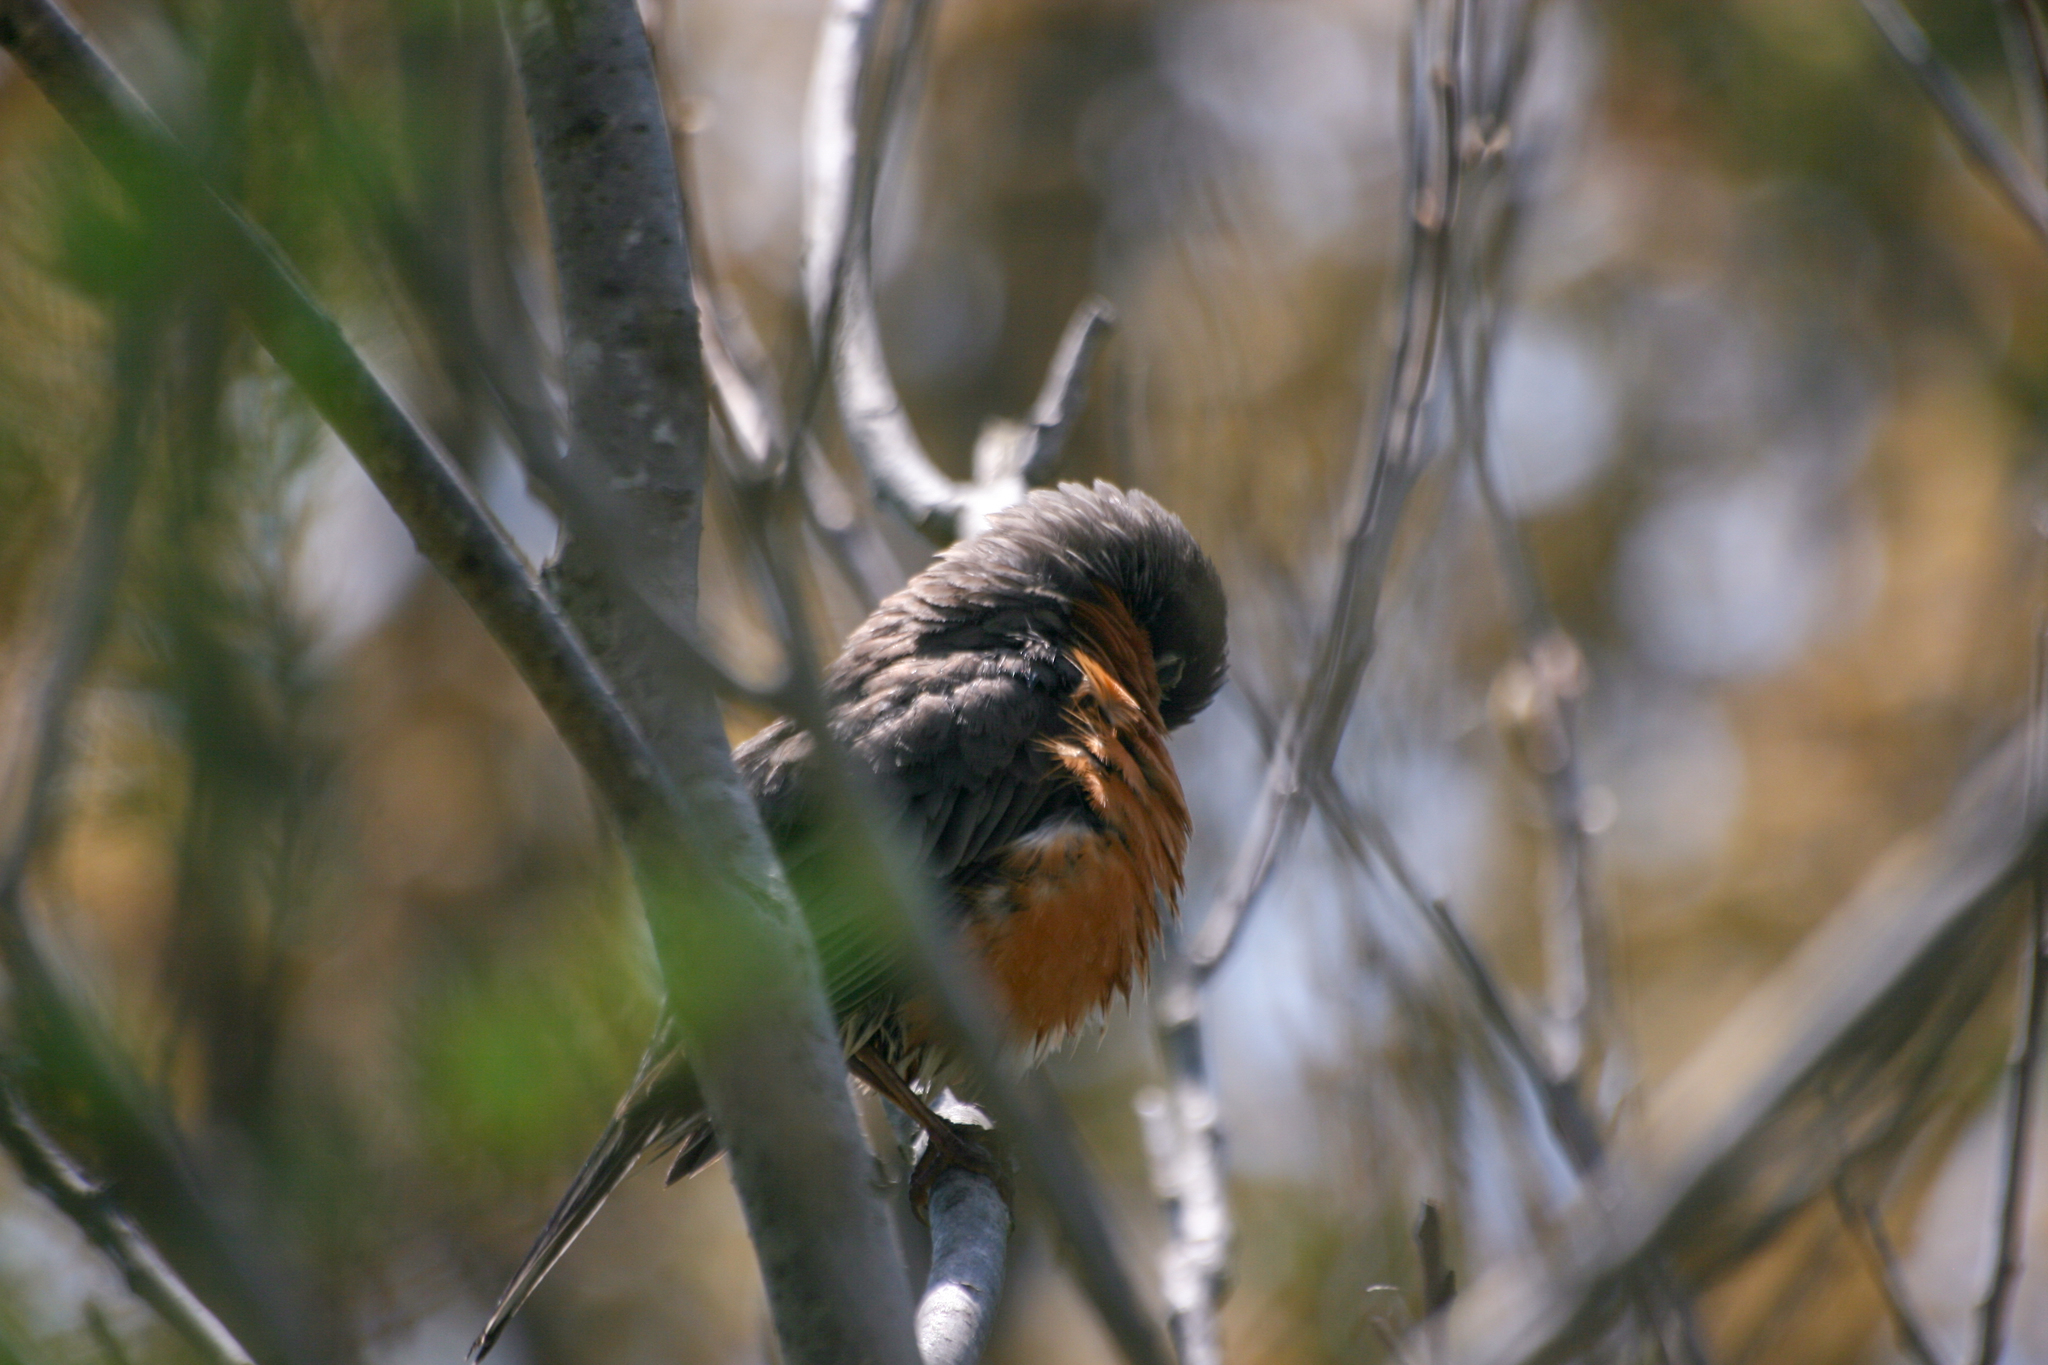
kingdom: Animalia
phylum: Chordata
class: Aves
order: Passeriformes
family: Turdidae
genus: Turdus
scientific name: Turdus migratorius
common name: American robin
